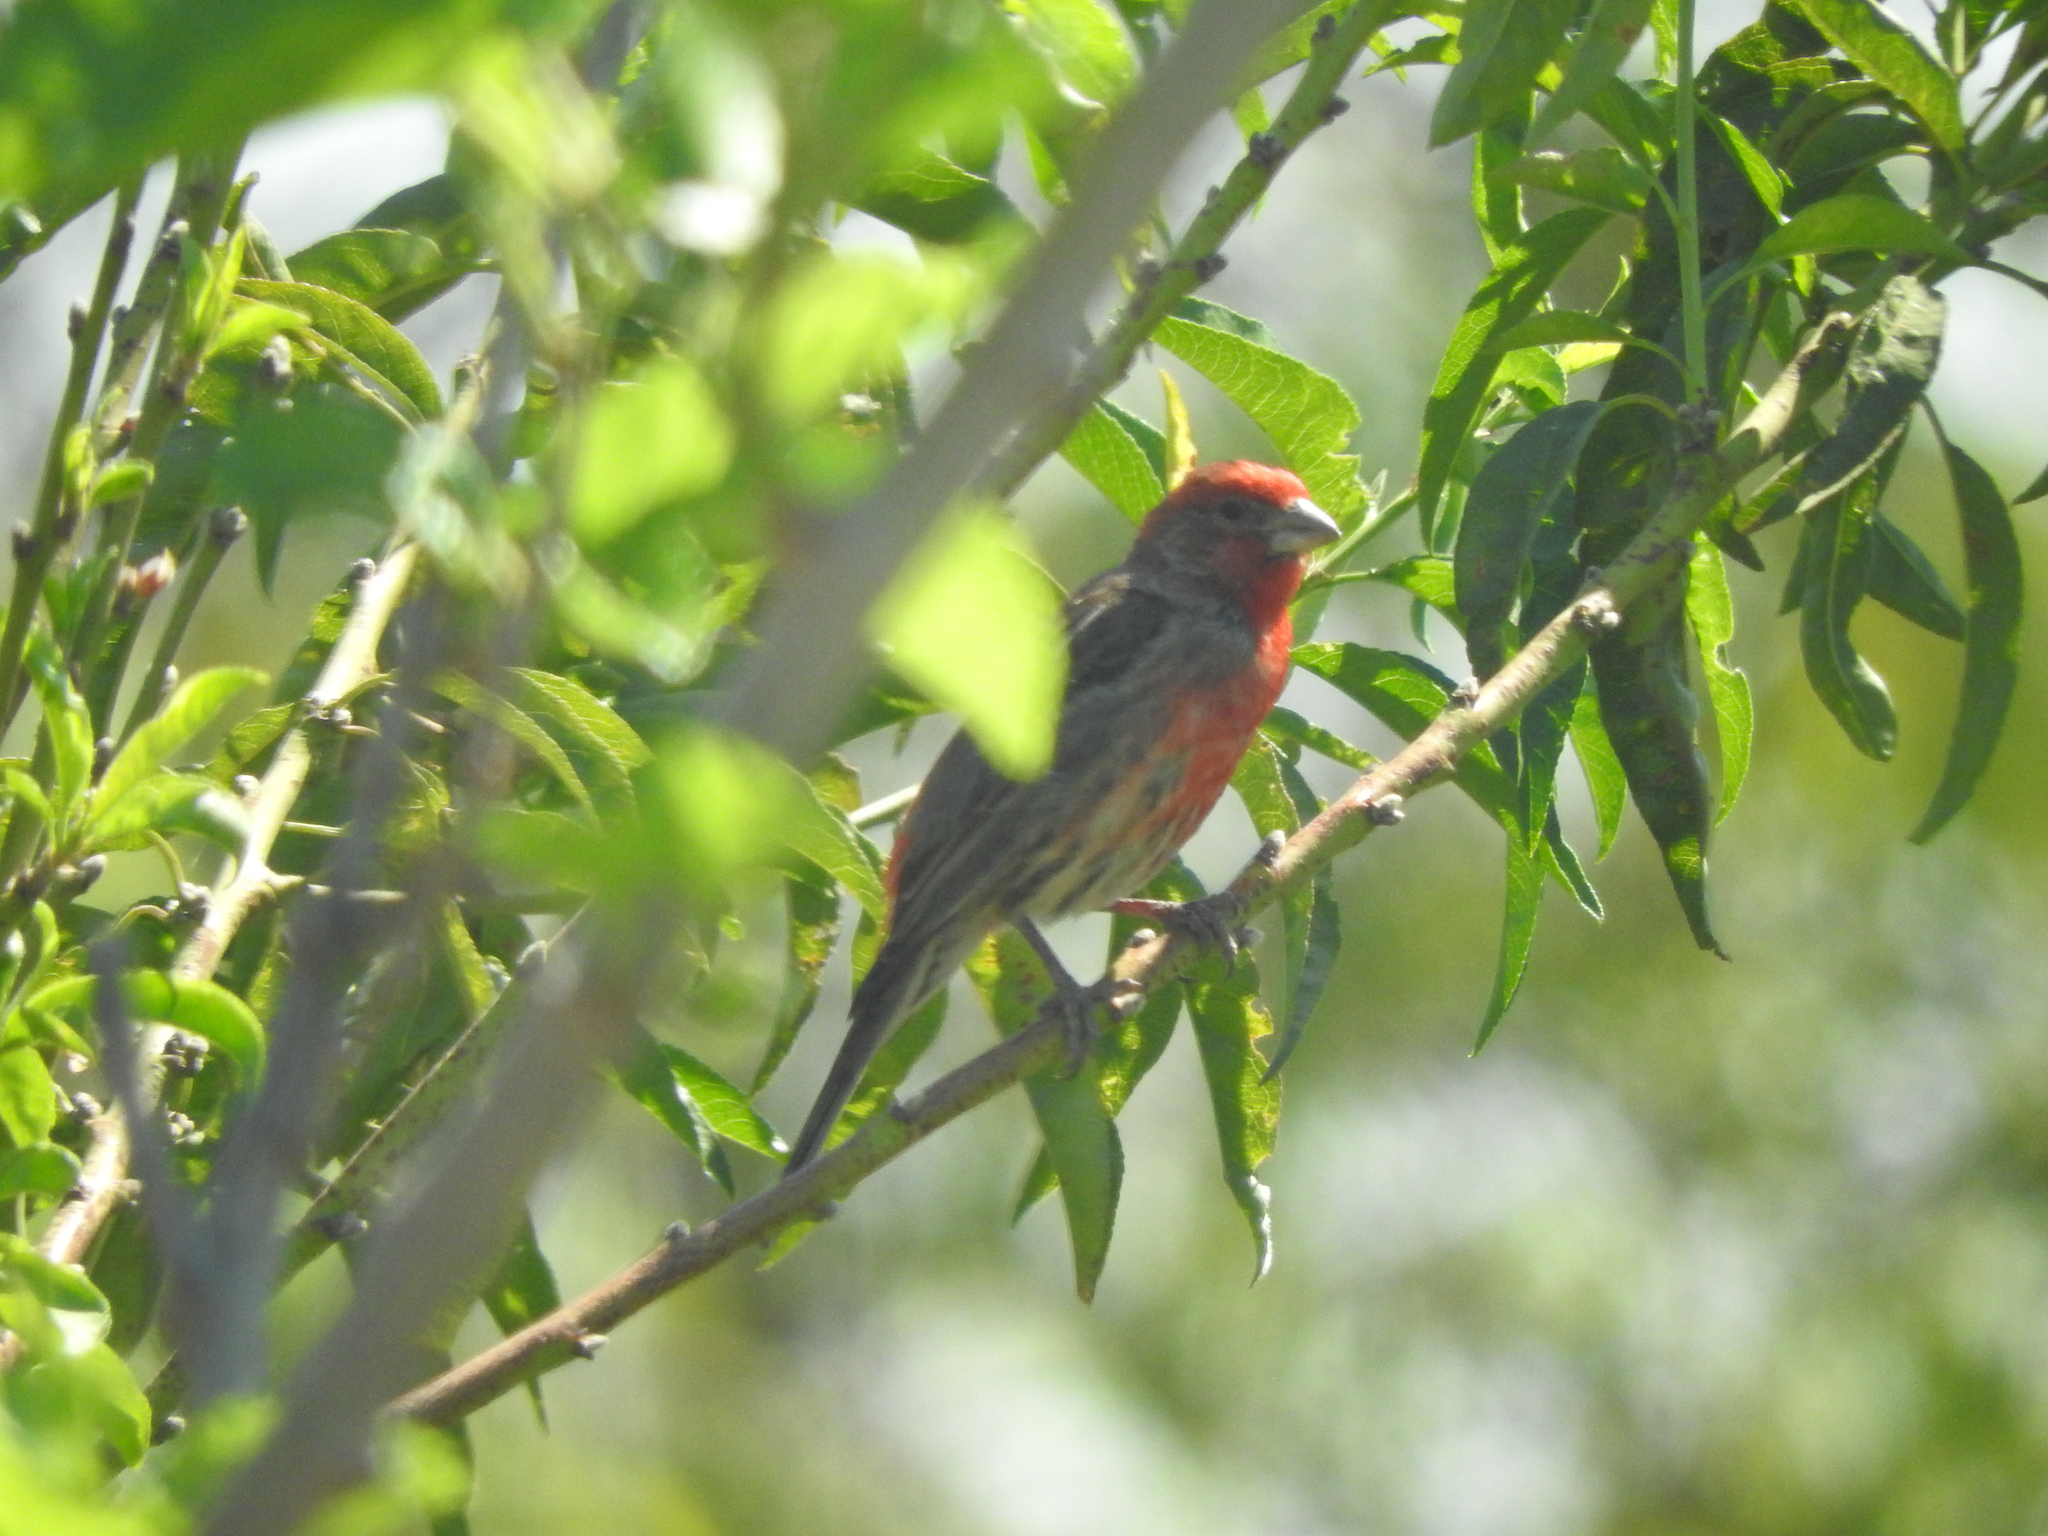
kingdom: Animalia
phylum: Chordata
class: Aves
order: Passeriformes
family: Fringillidae
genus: Haemorhous
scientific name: Haemorhous mexicanus
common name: House finch
